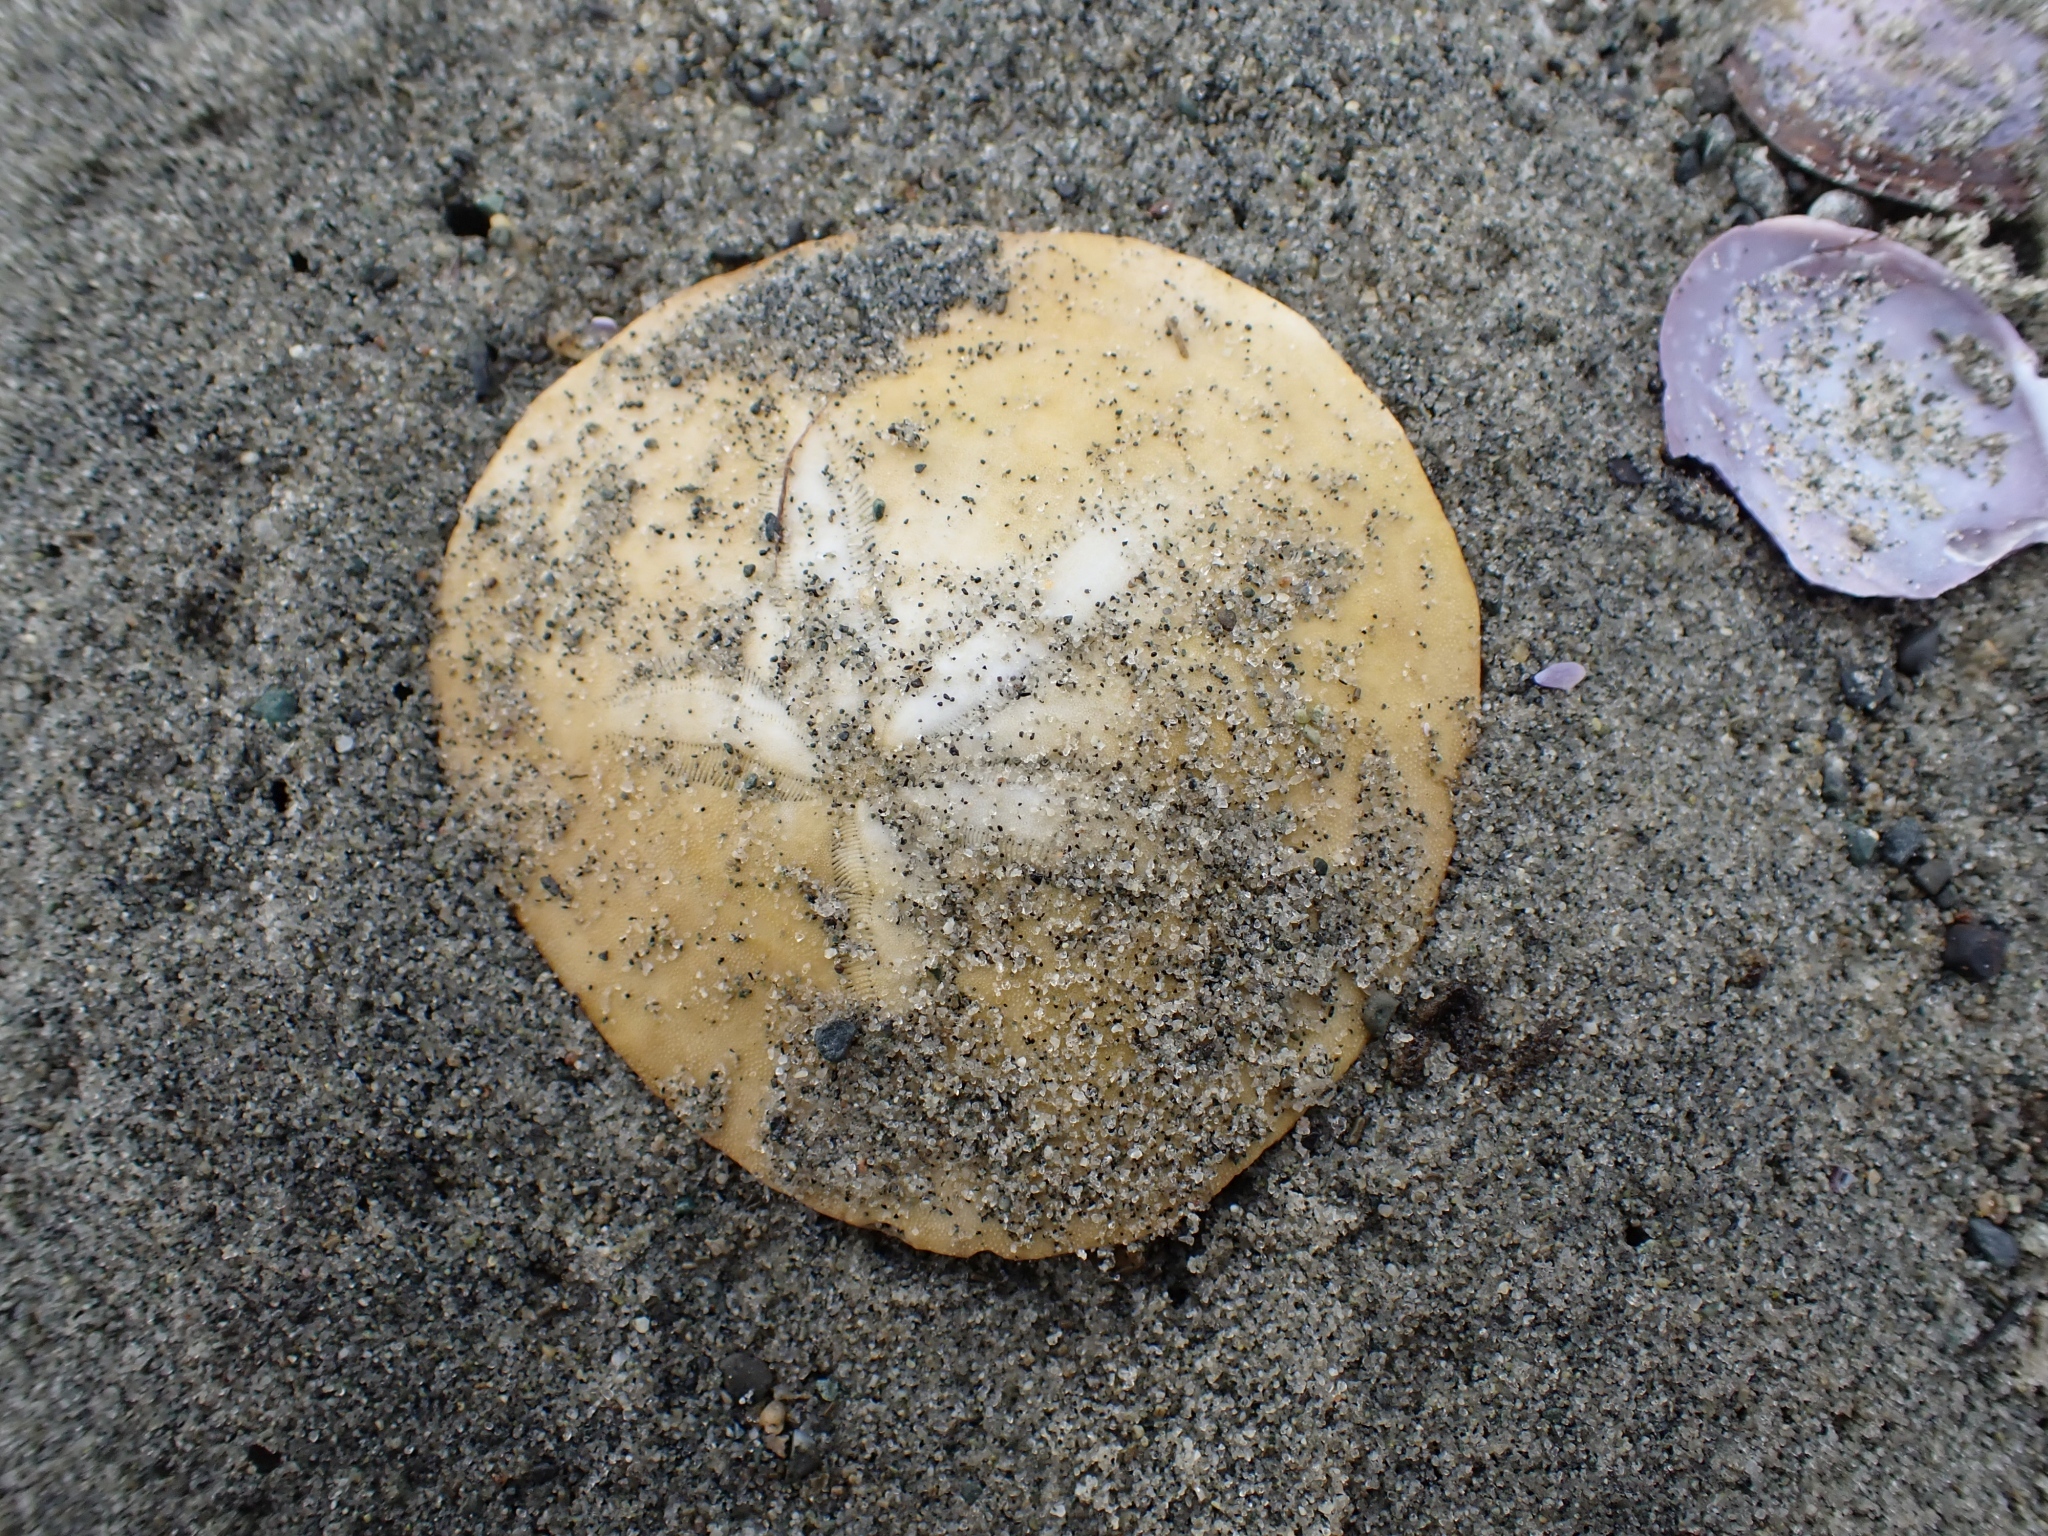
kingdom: Animalia
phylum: Echinodermata
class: Echinoidea
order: Echinolampadacea
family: Dendrasteridae
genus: Dendraster
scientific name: Dendraster excentricus
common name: Eccentric sand dollar sea urchin
